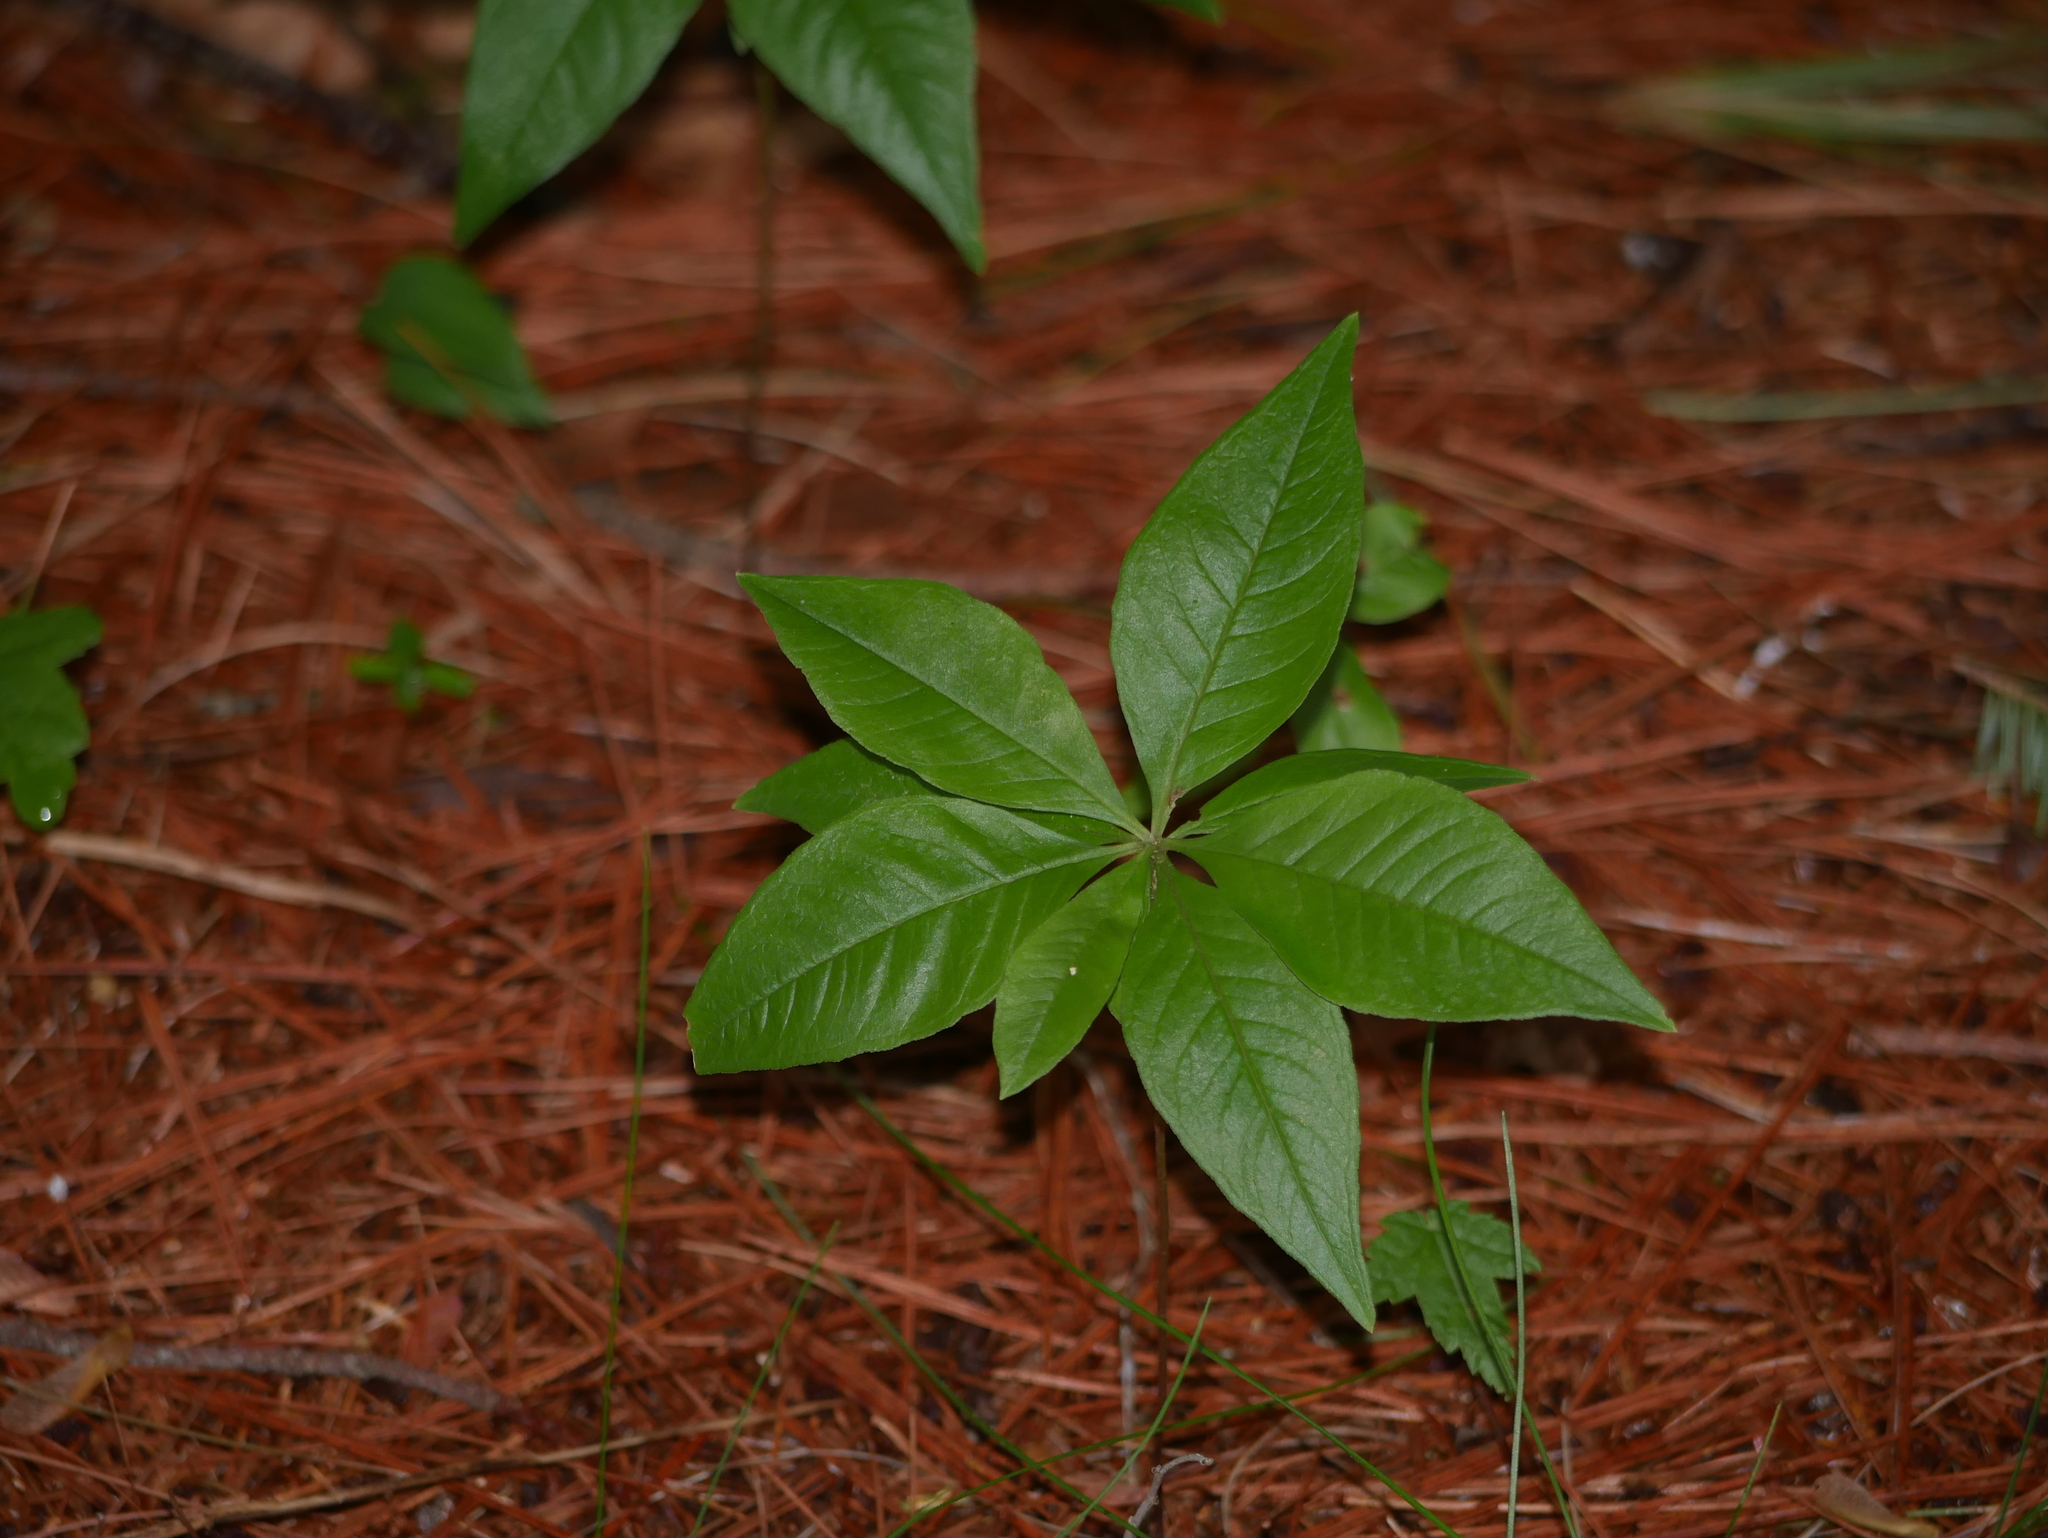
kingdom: Plantae
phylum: Tracheophyta
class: Magnoliopsida
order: Ericales
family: Primulaceae
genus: Lysimachia
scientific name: Lysimachia borealis
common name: American starflower
